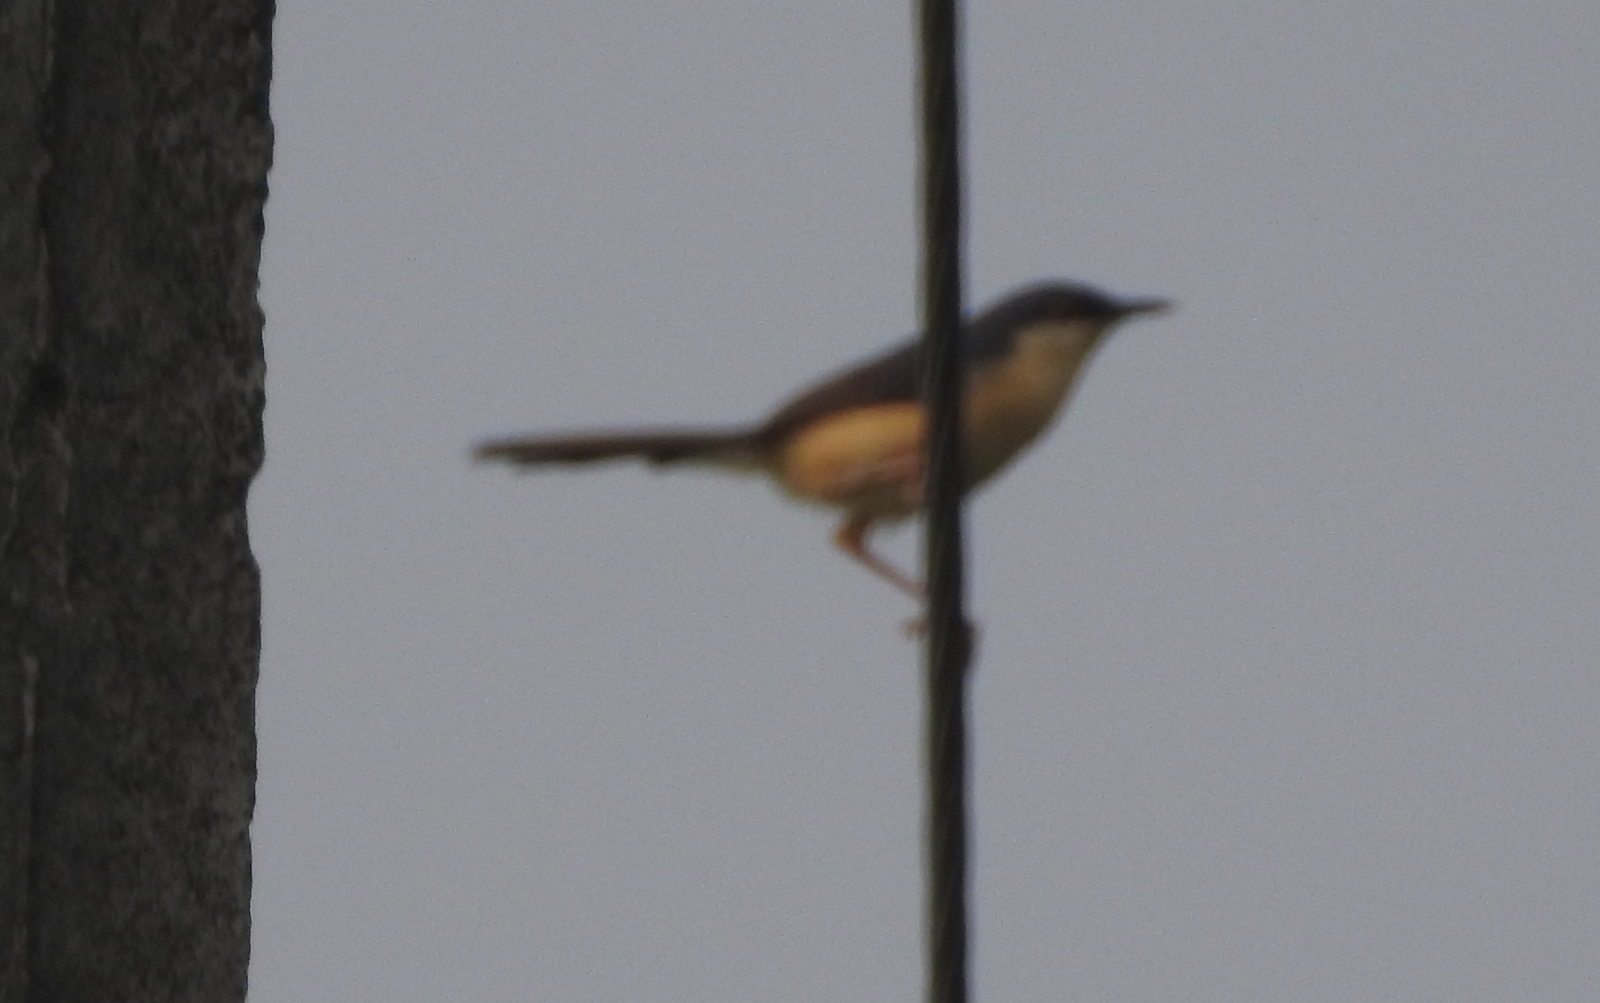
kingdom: Animalia
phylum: Chordata
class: Aves
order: Passeriformes
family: Cisticolidae
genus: Prinia
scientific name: Prinia socialis
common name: Ashy prinia
